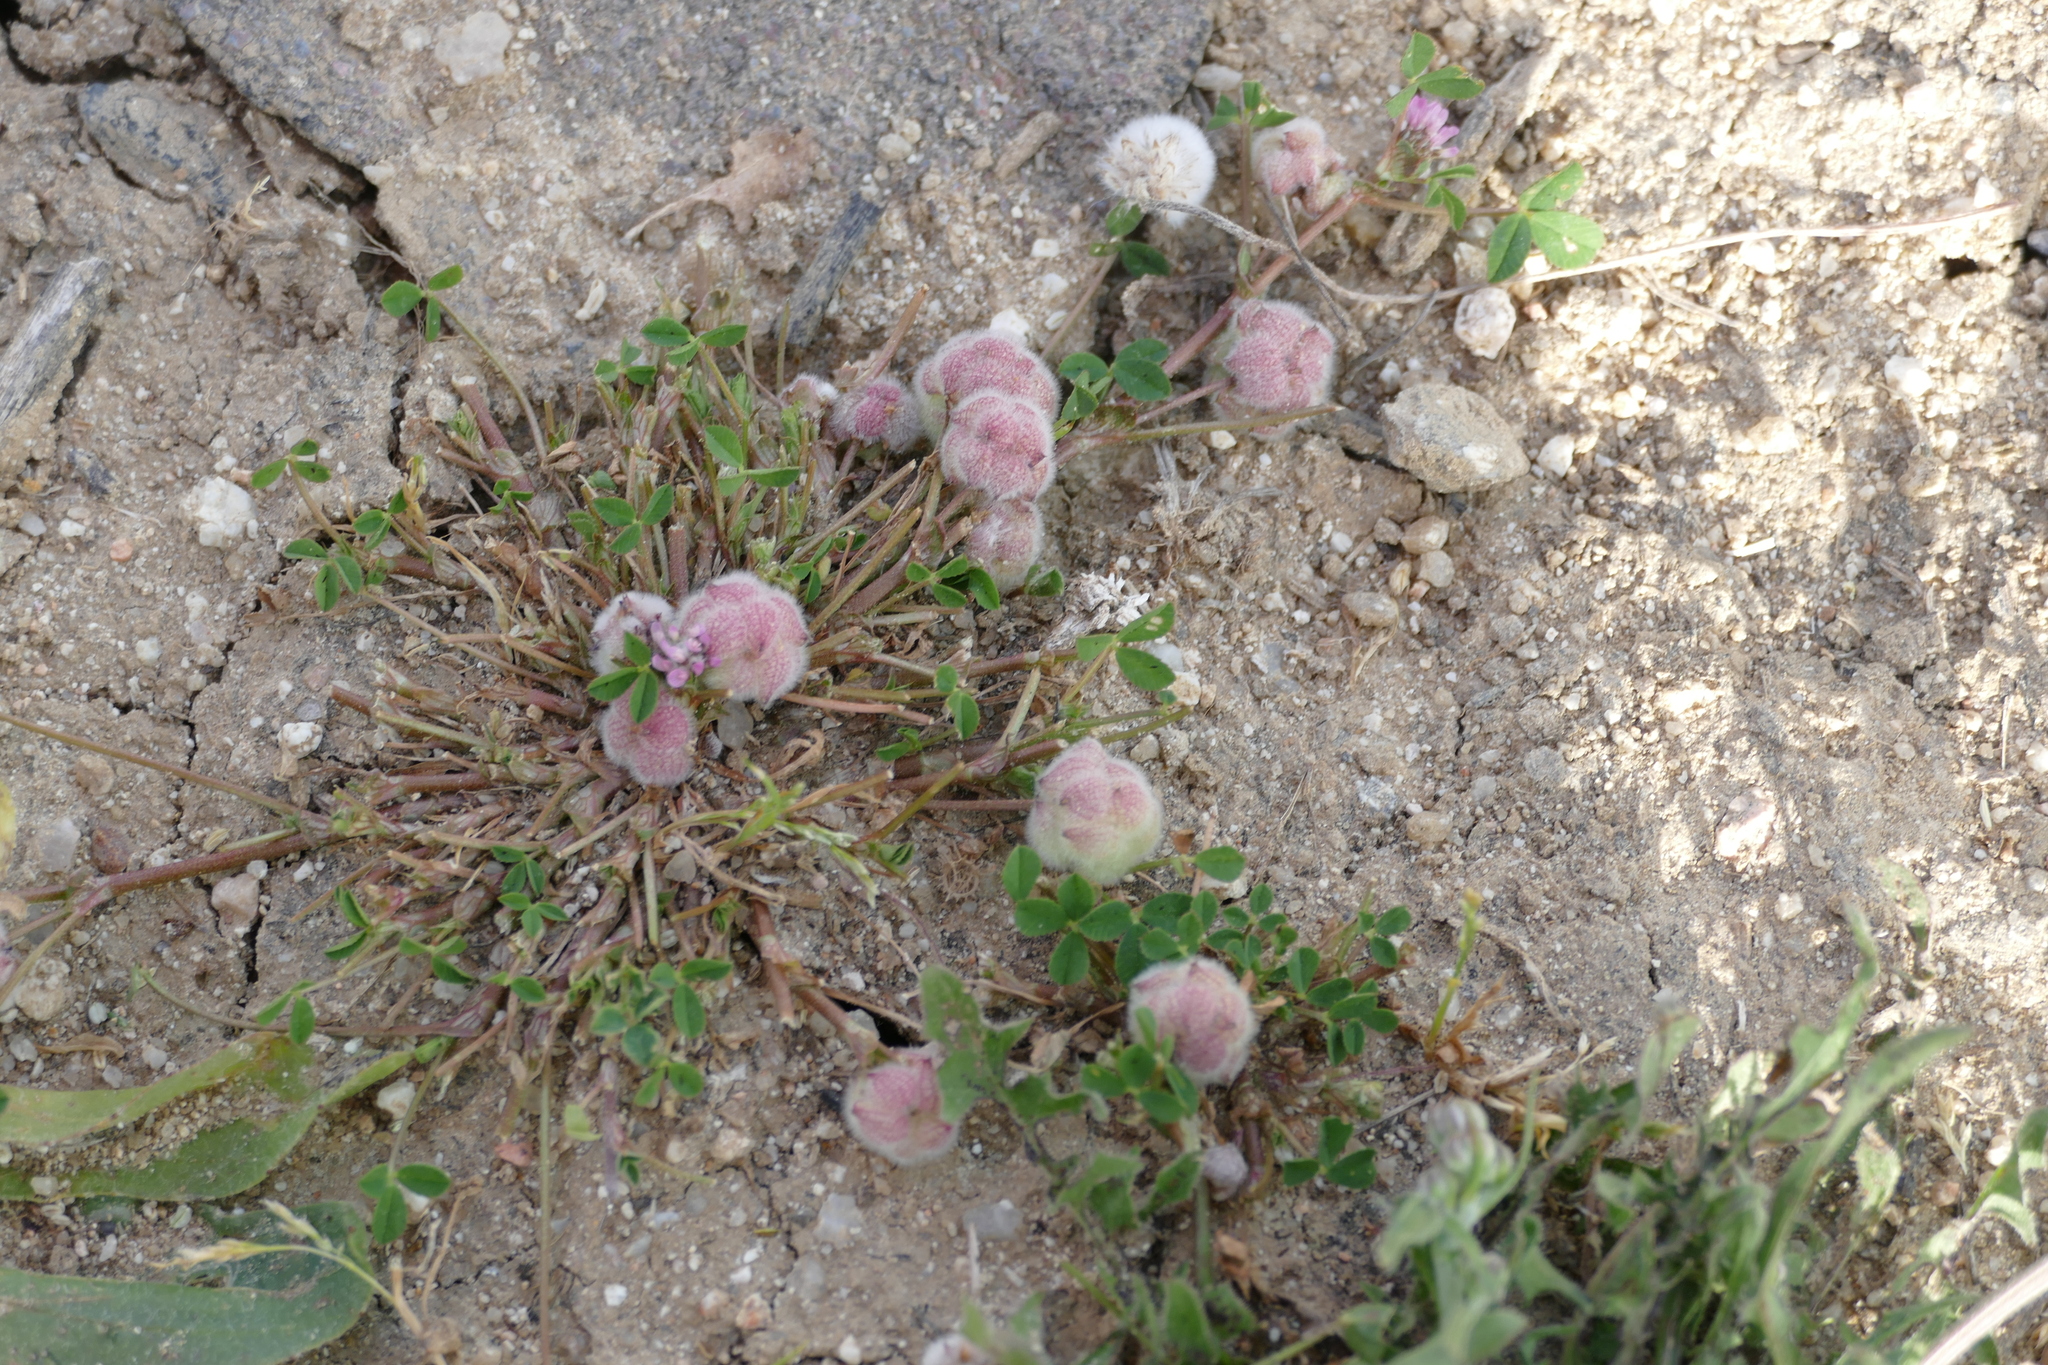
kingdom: Plantae
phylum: Tracheophyta
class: Magnoliopsida
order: Fabales
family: Fabaceae
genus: Trifolium
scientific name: Trifolium tomentosum
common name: Woolly clover
